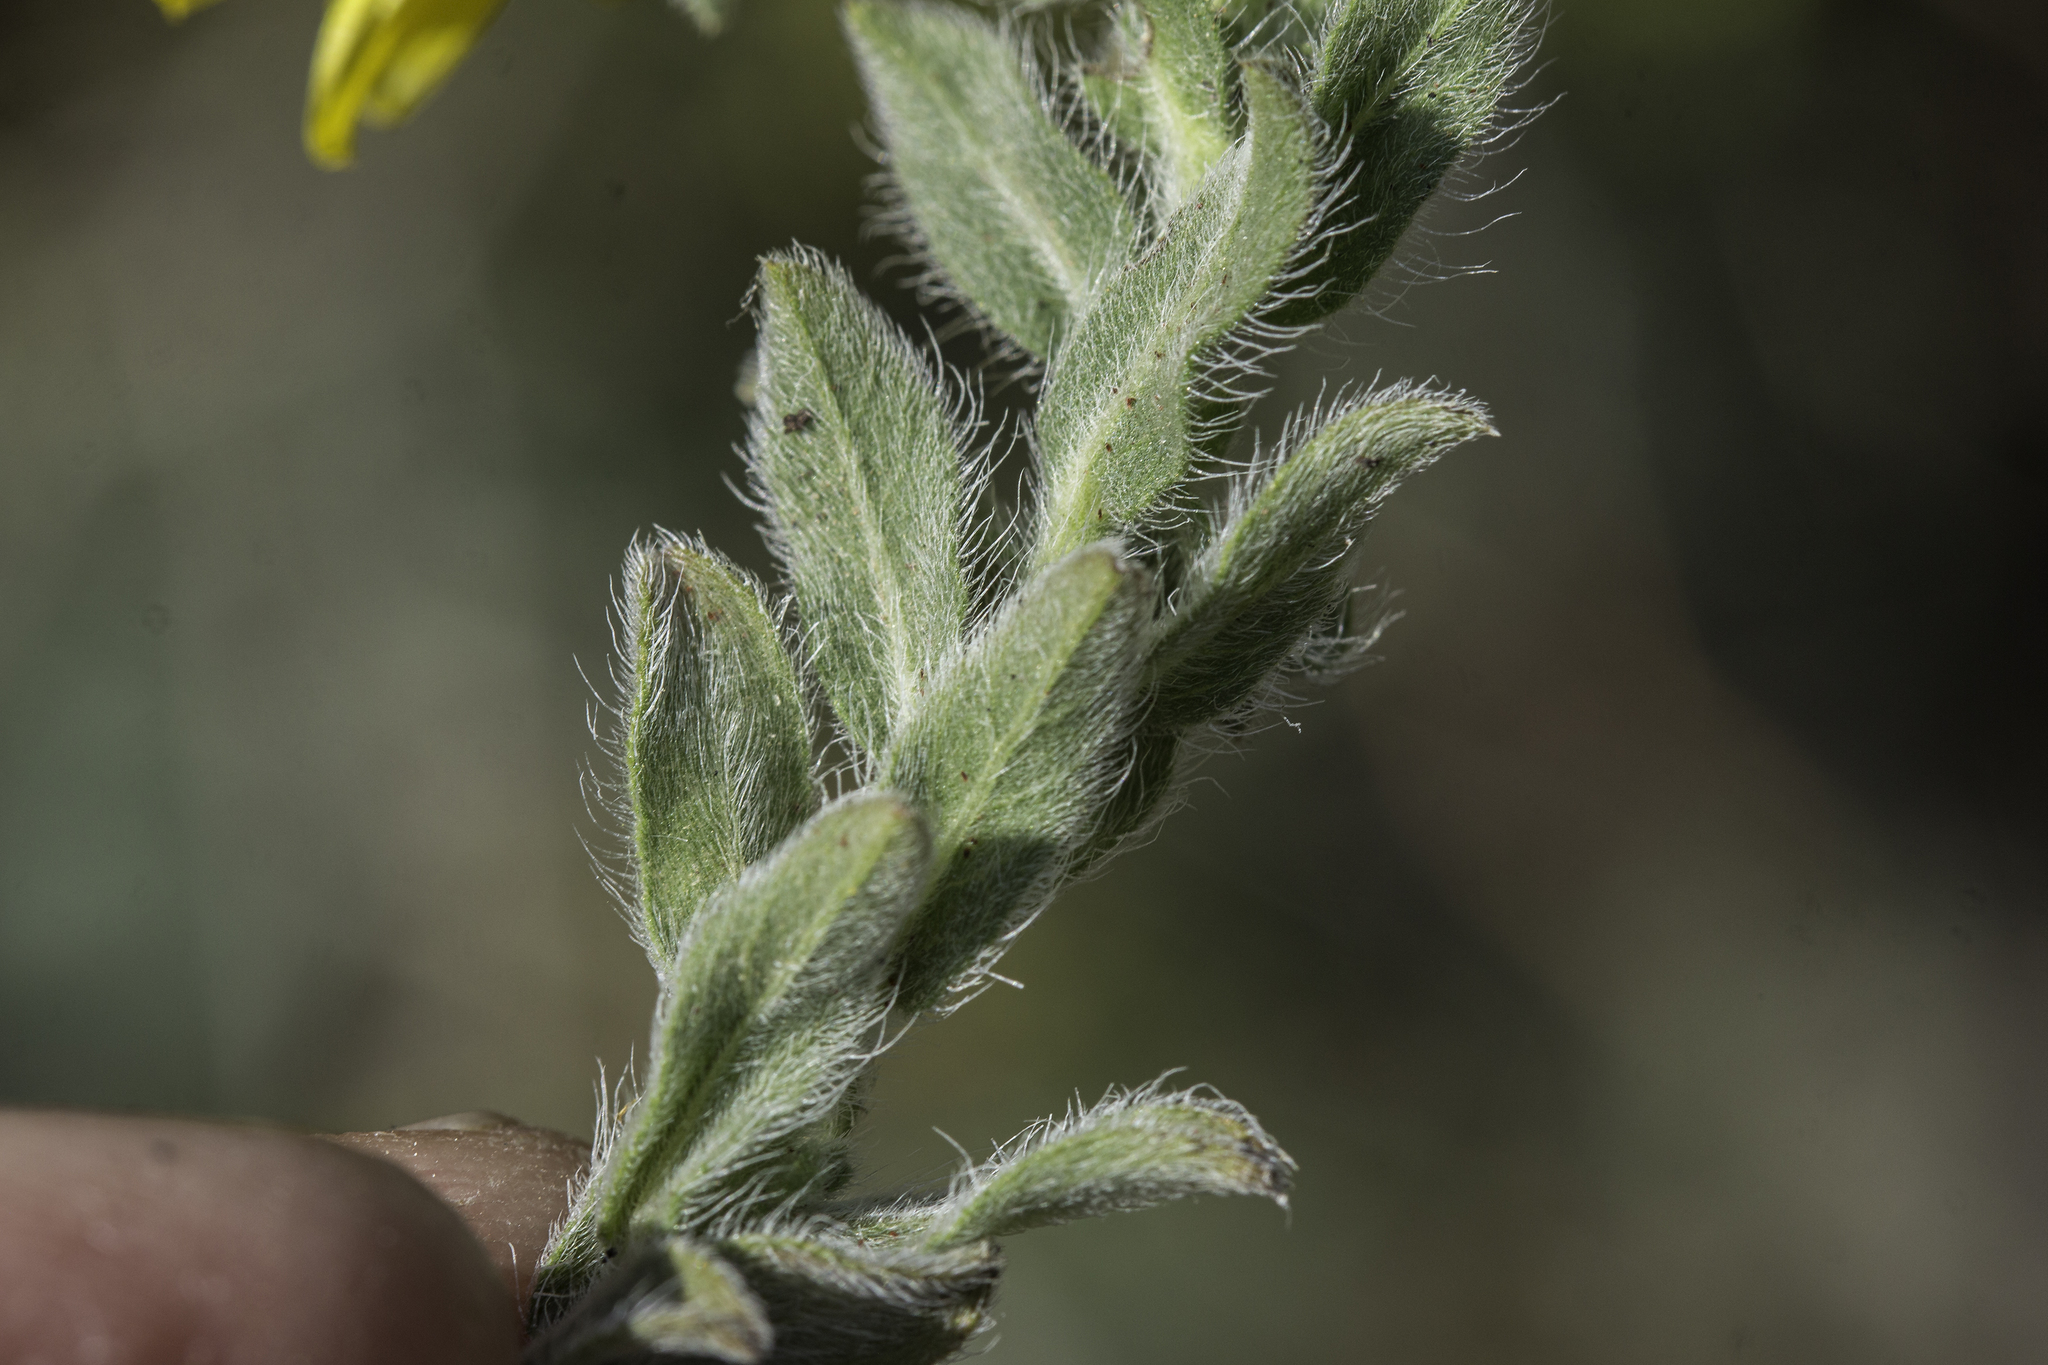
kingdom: Plantae
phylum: Tracheophyta
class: Magnoliopsida
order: Asterales
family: Asteraceae
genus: Heterotheca
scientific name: Heterotheca fulcrata
